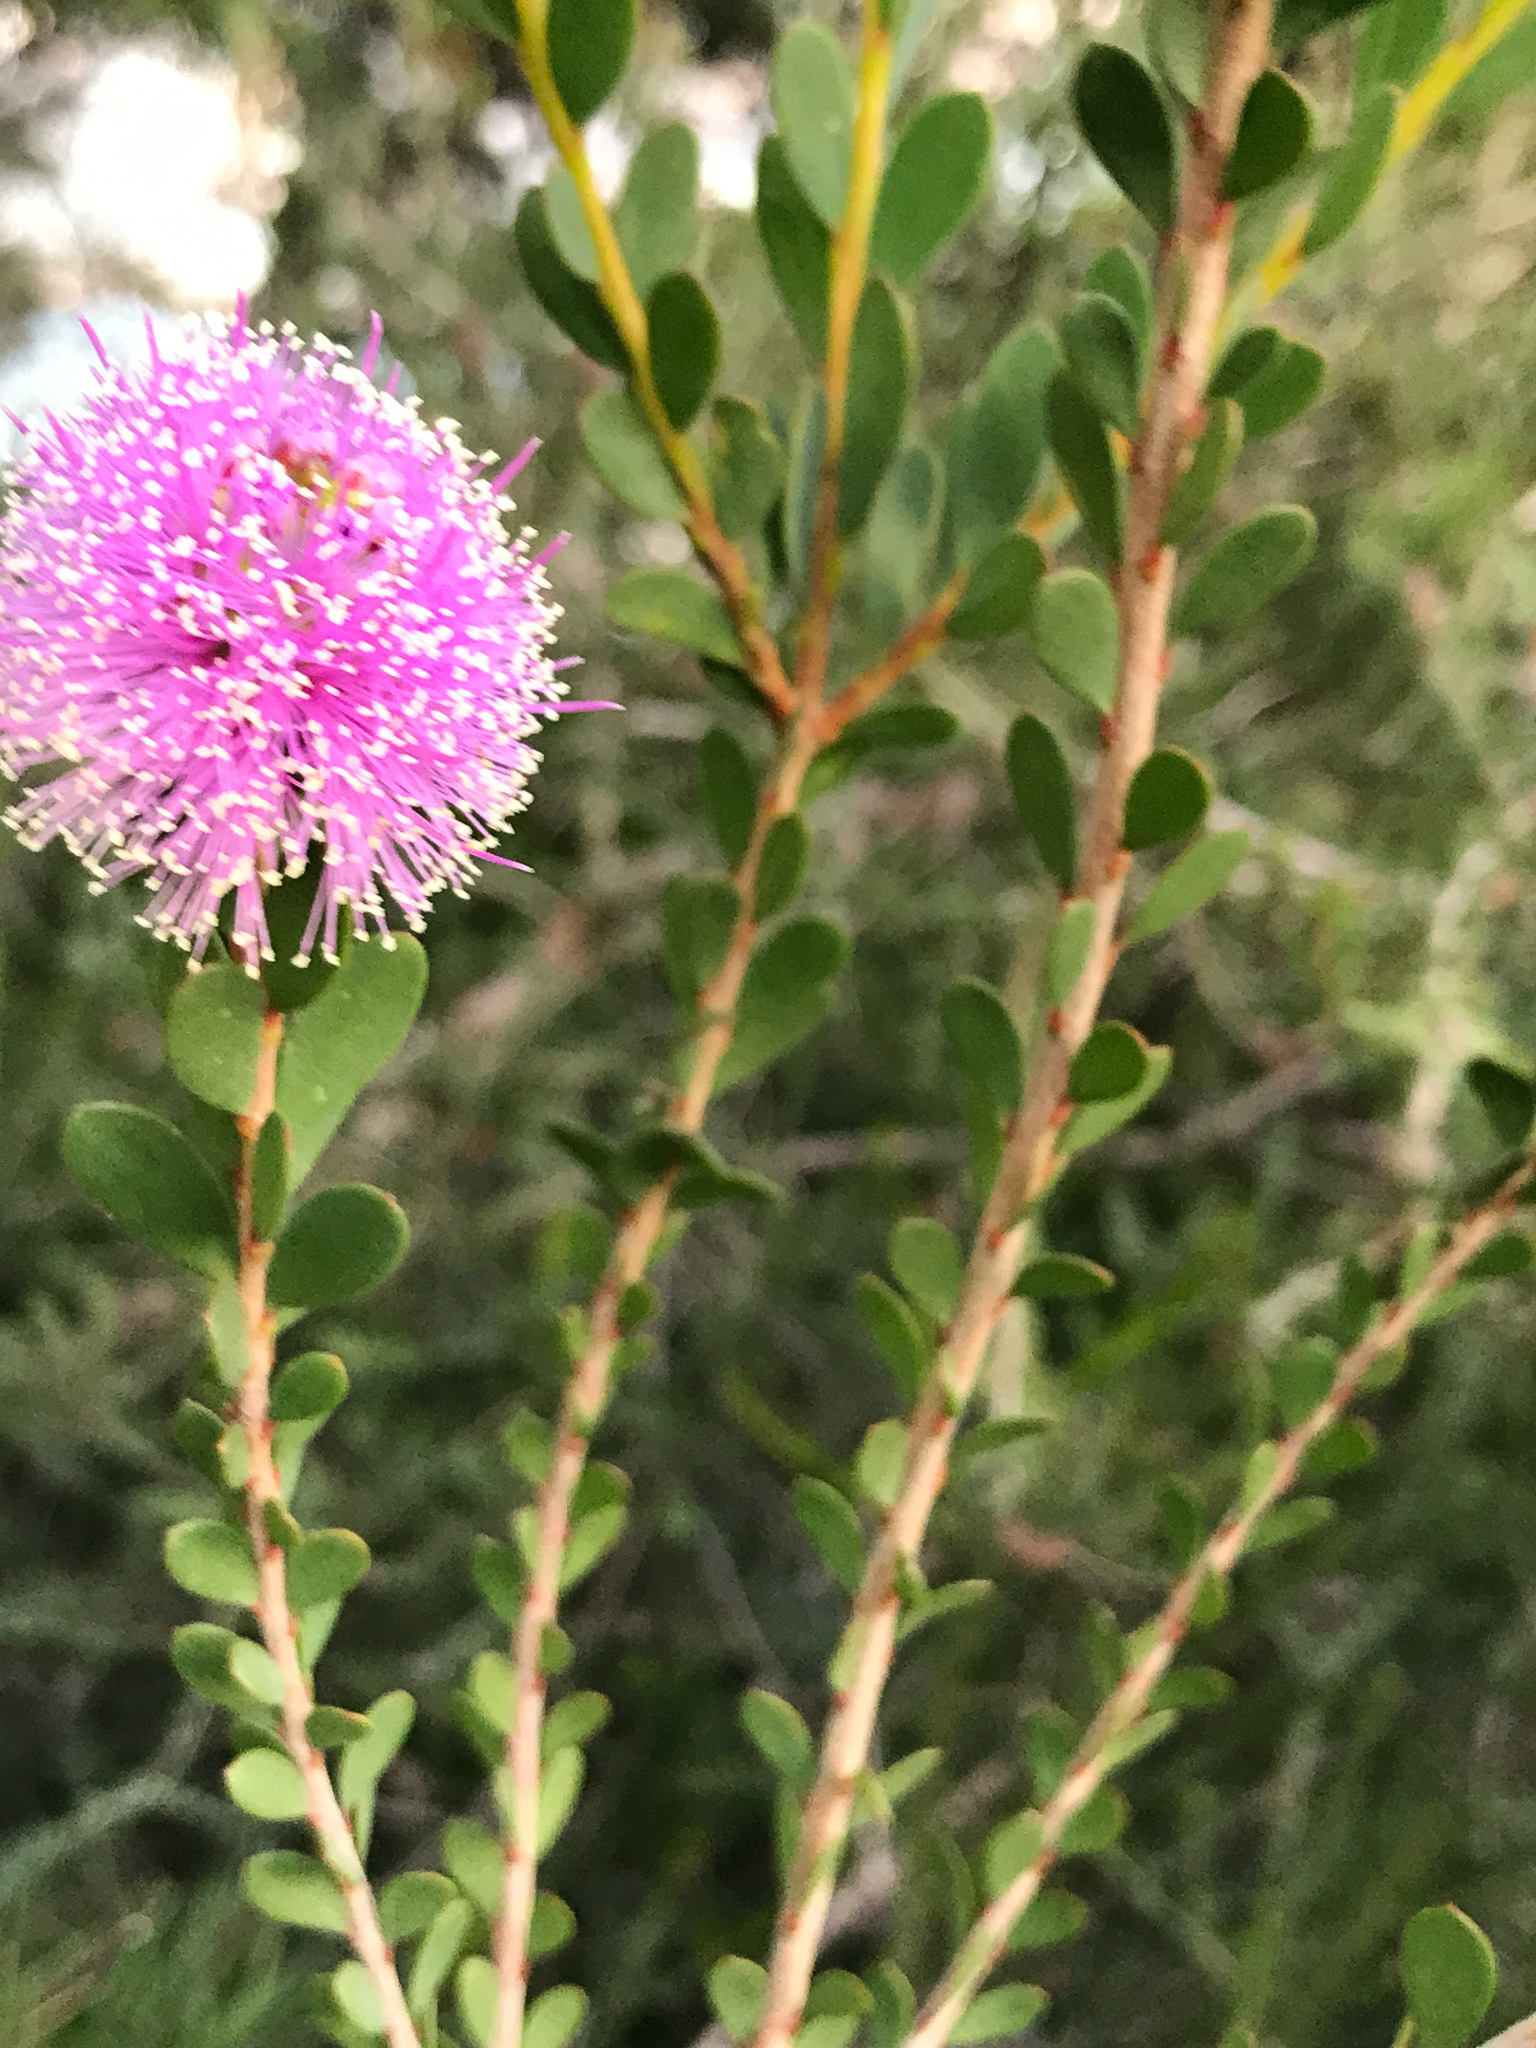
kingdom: Plantae
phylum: Tracheophyta
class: Magnoliopsida
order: Myrtales
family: Myrtaceae
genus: Melaleuca
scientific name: Melaleuca nesophila
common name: Mauve honey myrtle
